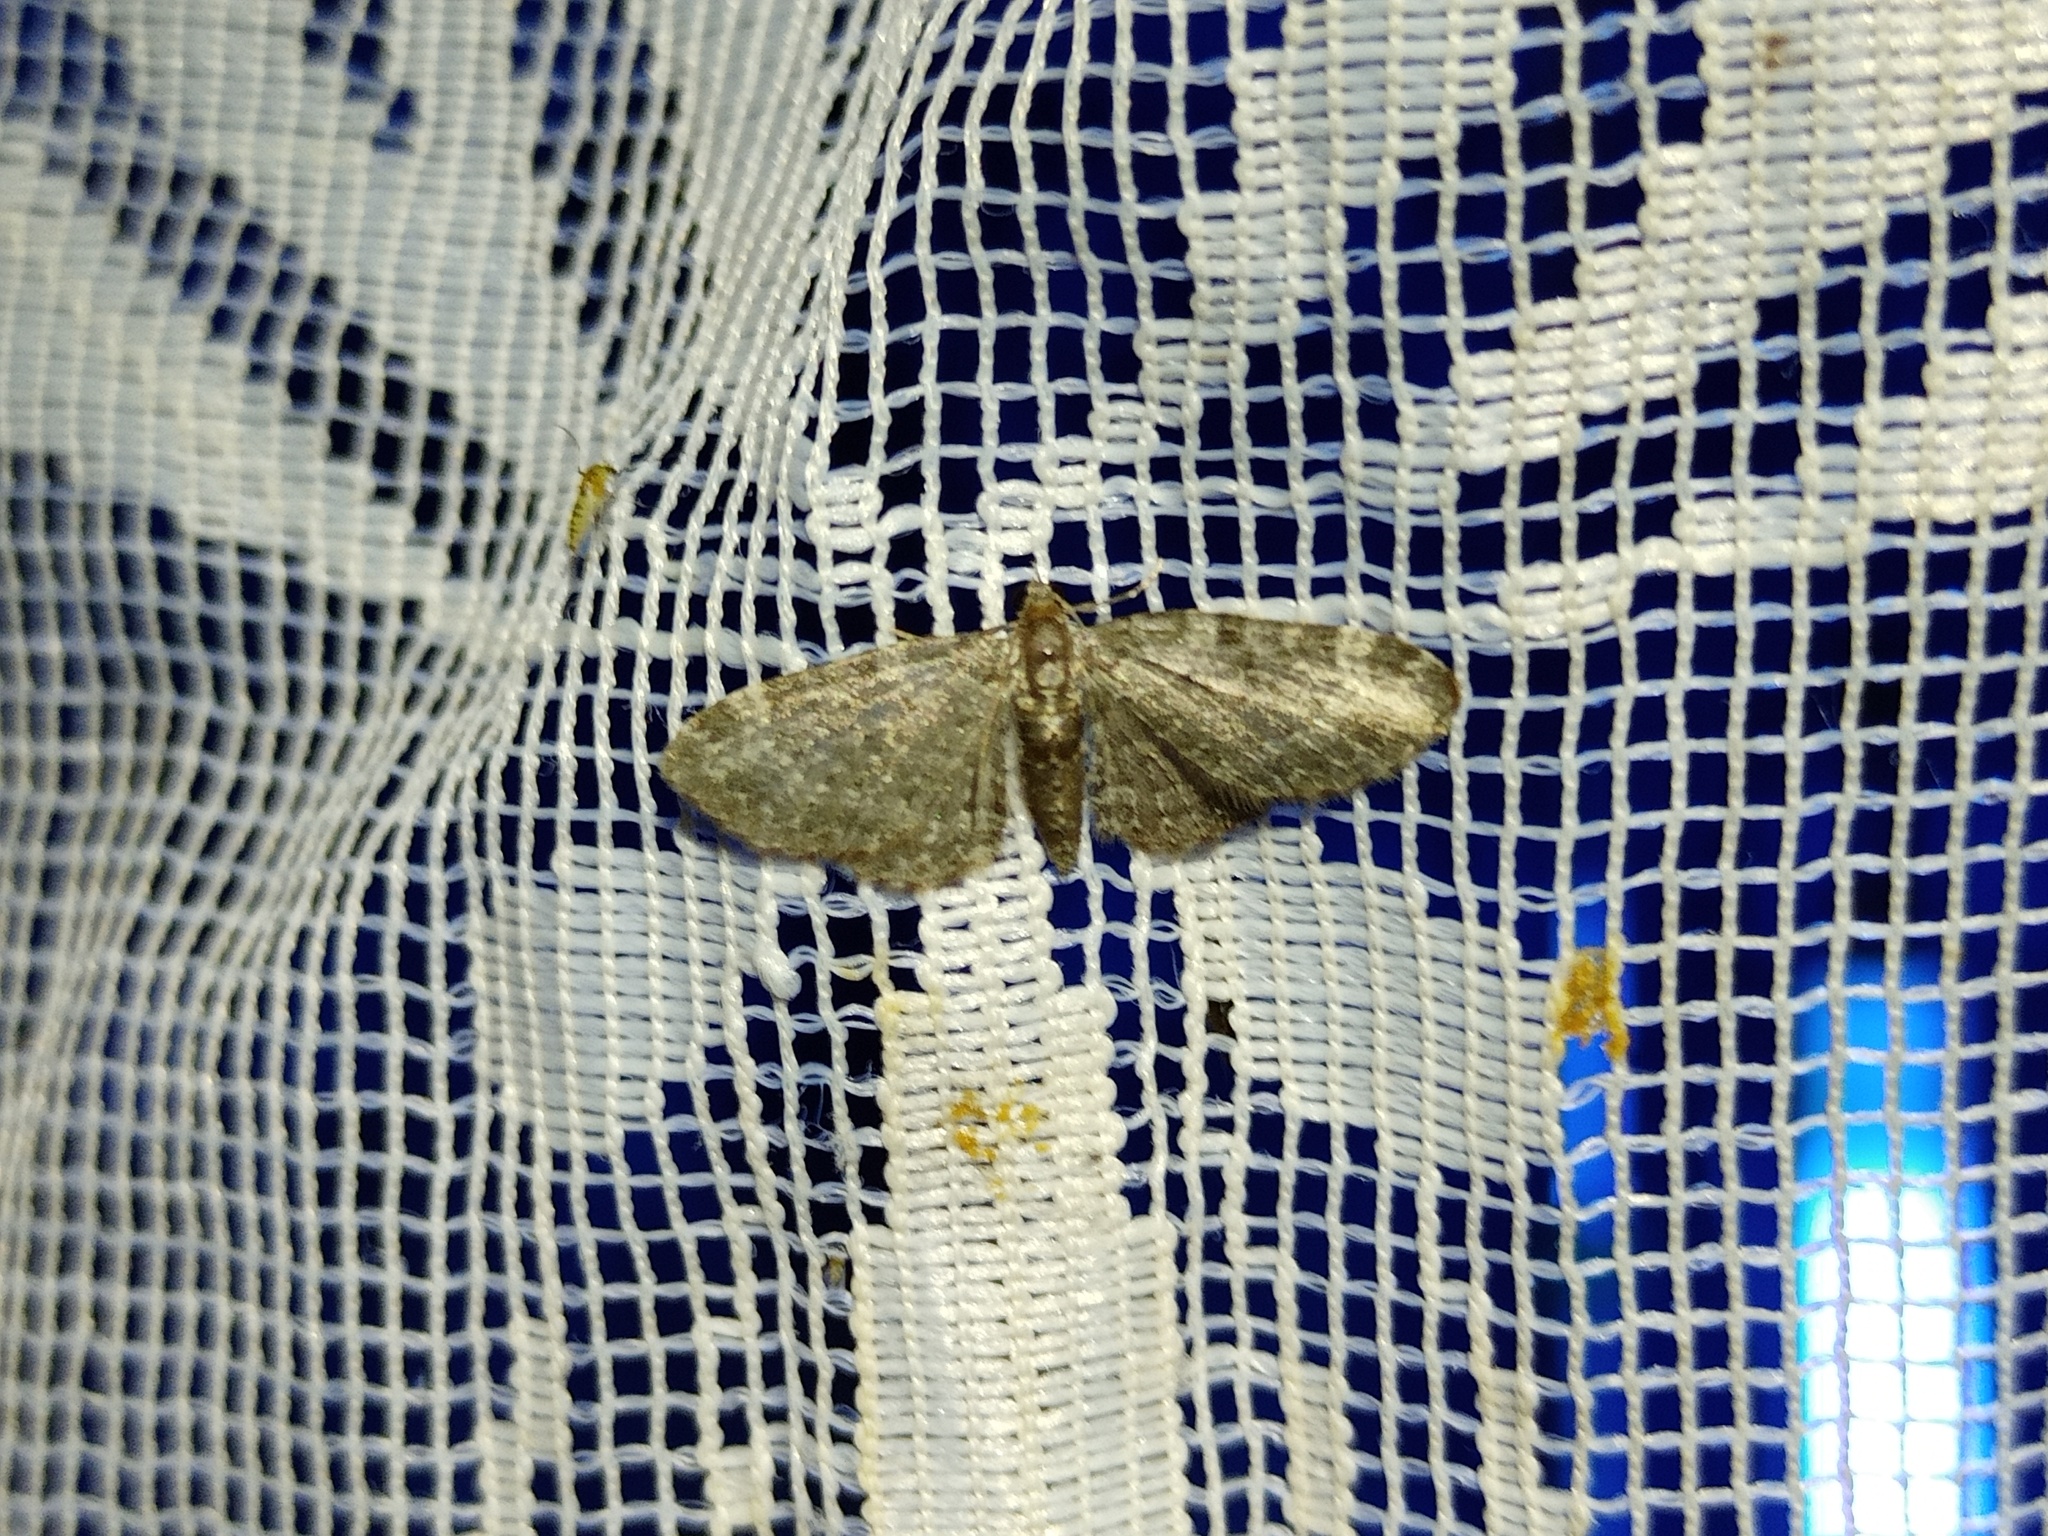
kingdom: Animalia
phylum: Arthropoda
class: Insecta
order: Lepidoptera
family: Geometridae
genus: Pasiphila
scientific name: Pasiphila chloerata
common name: Sloe pug
